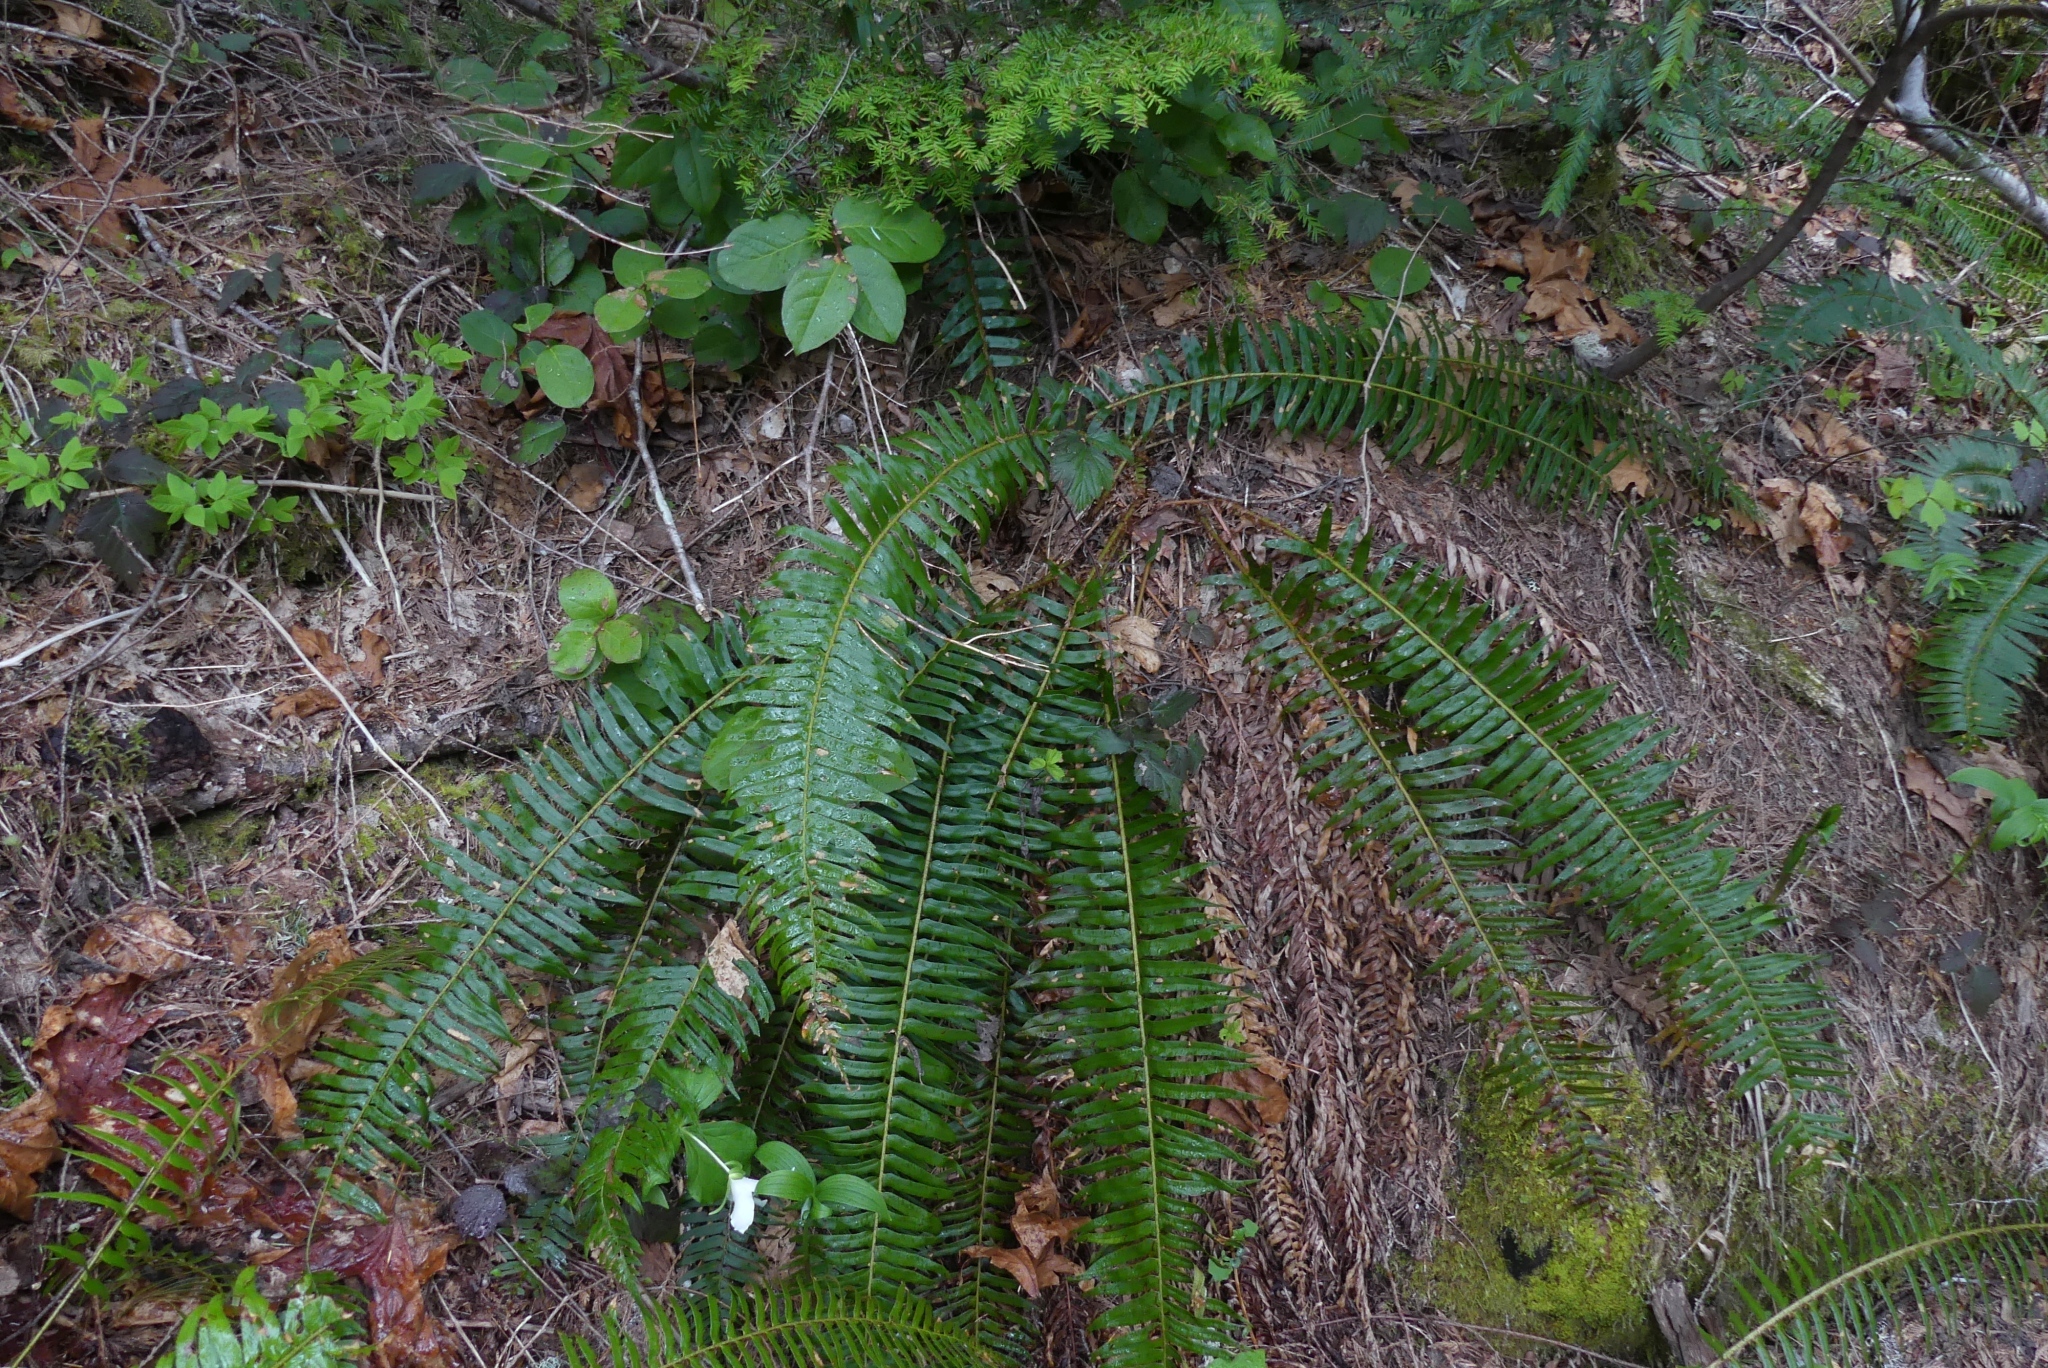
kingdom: Plantae
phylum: Tracheophyta
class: Polypodiopsida
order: Polypodiales
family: Dryopteridaceae
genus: Polystichum
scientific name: Polystichum munitum
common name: Western sword-fern
